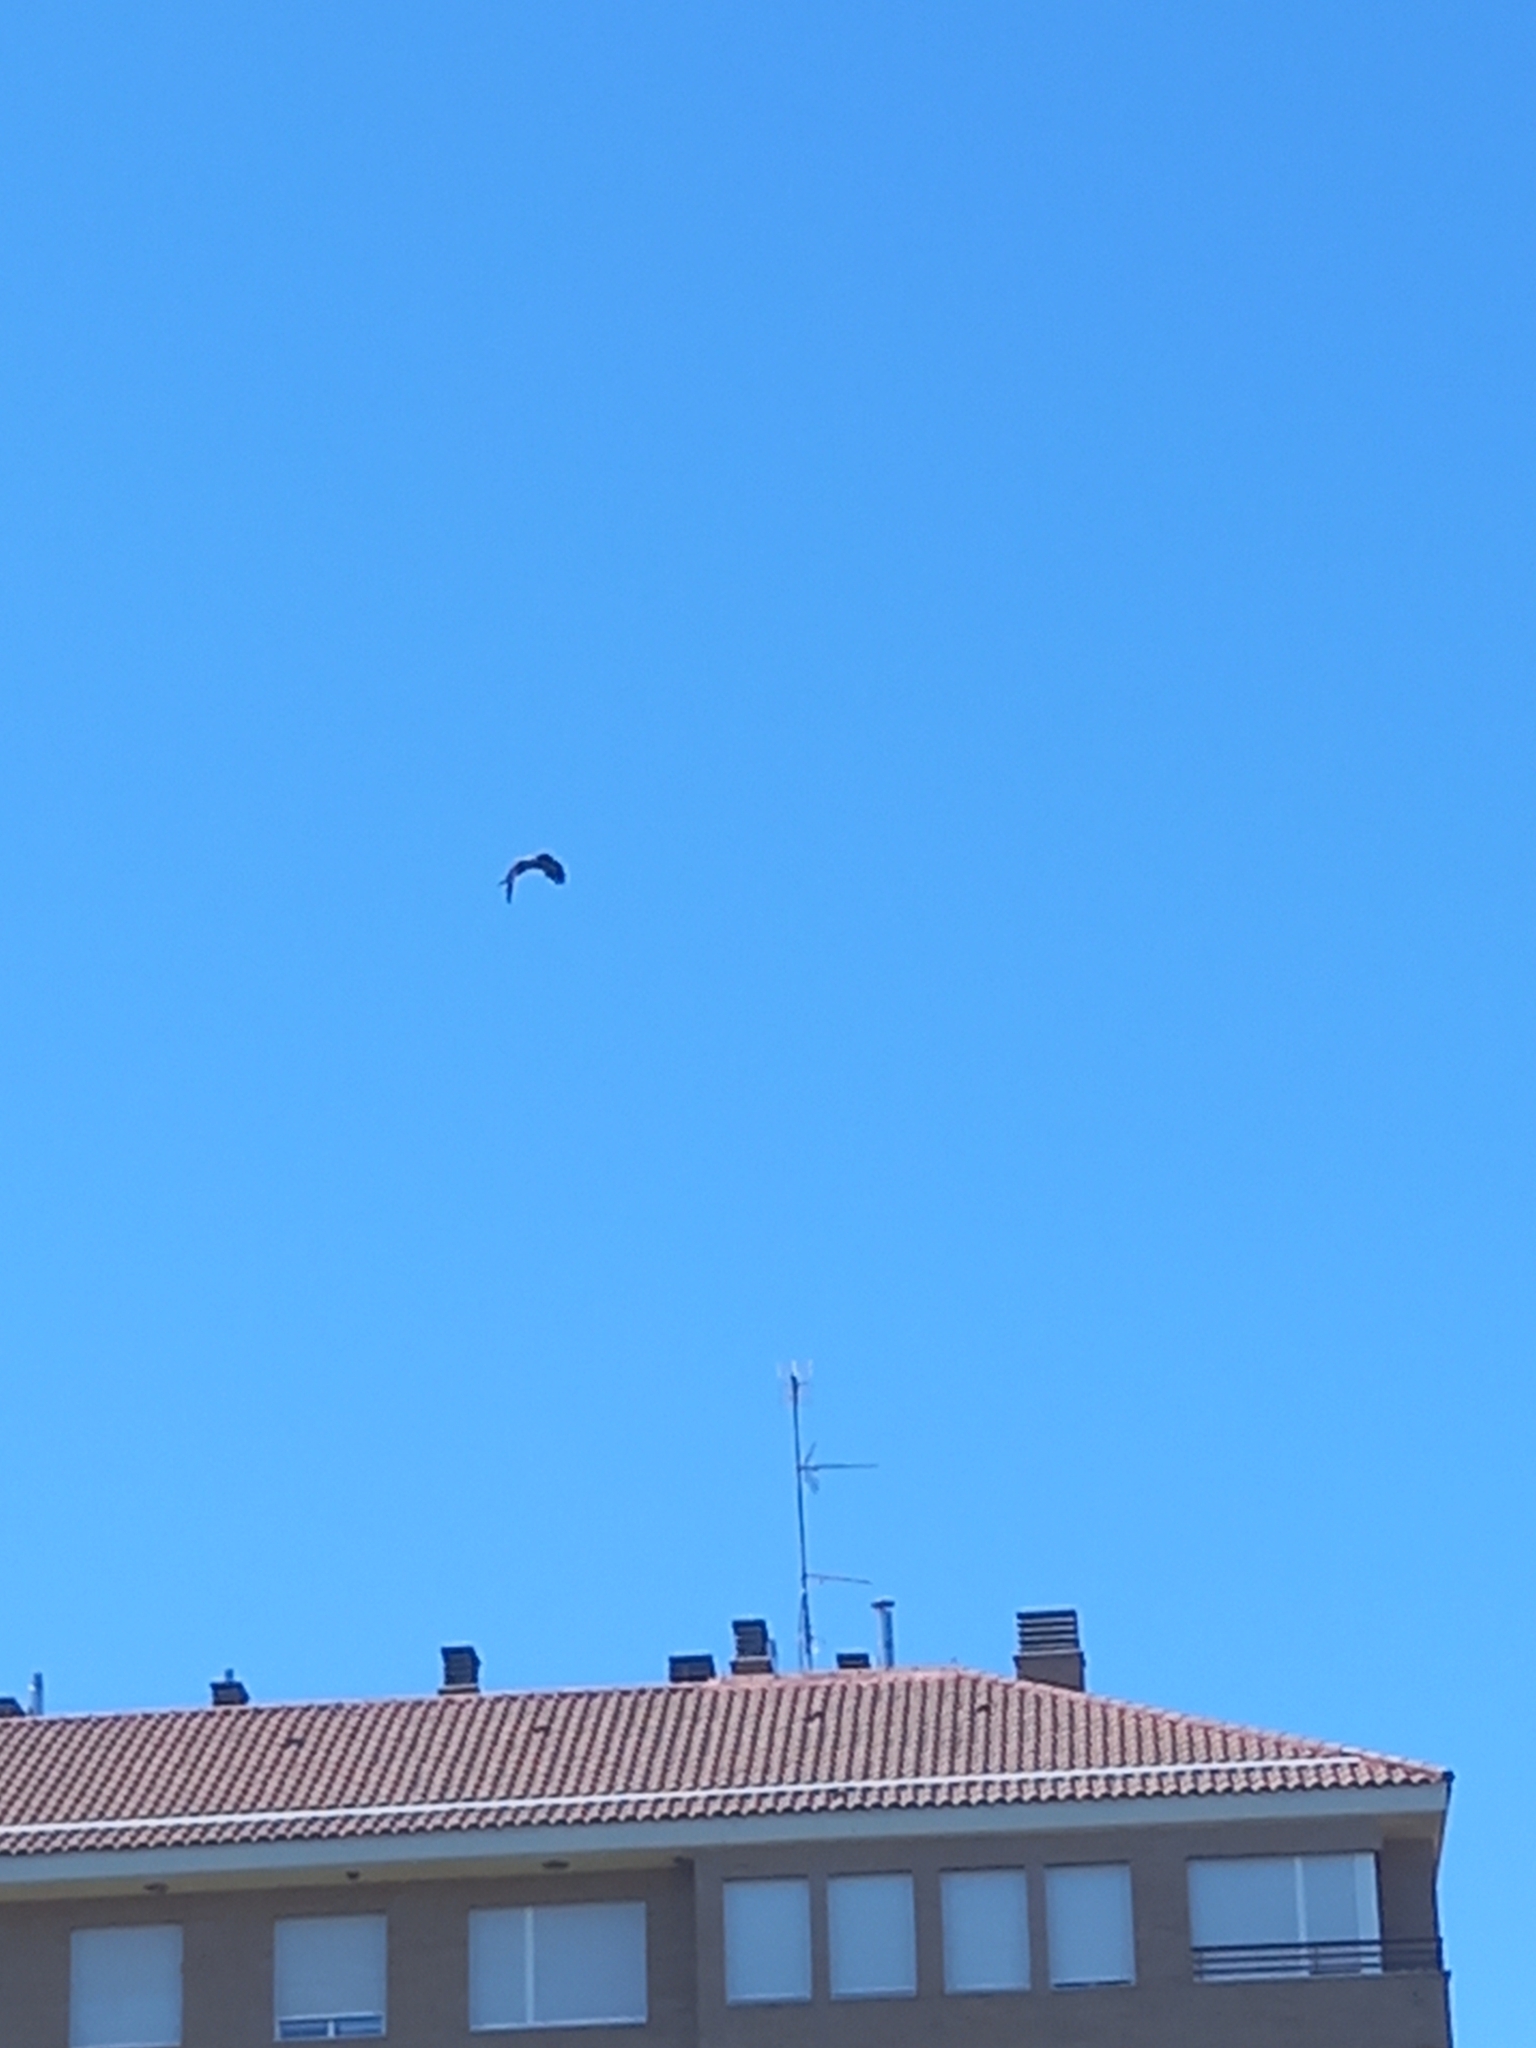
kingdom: Animalia
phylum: Chordata
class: Aves
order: Accipitriformes
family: Accipitridae
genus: Milvus
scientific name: Milvus migrans
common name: Black kite
